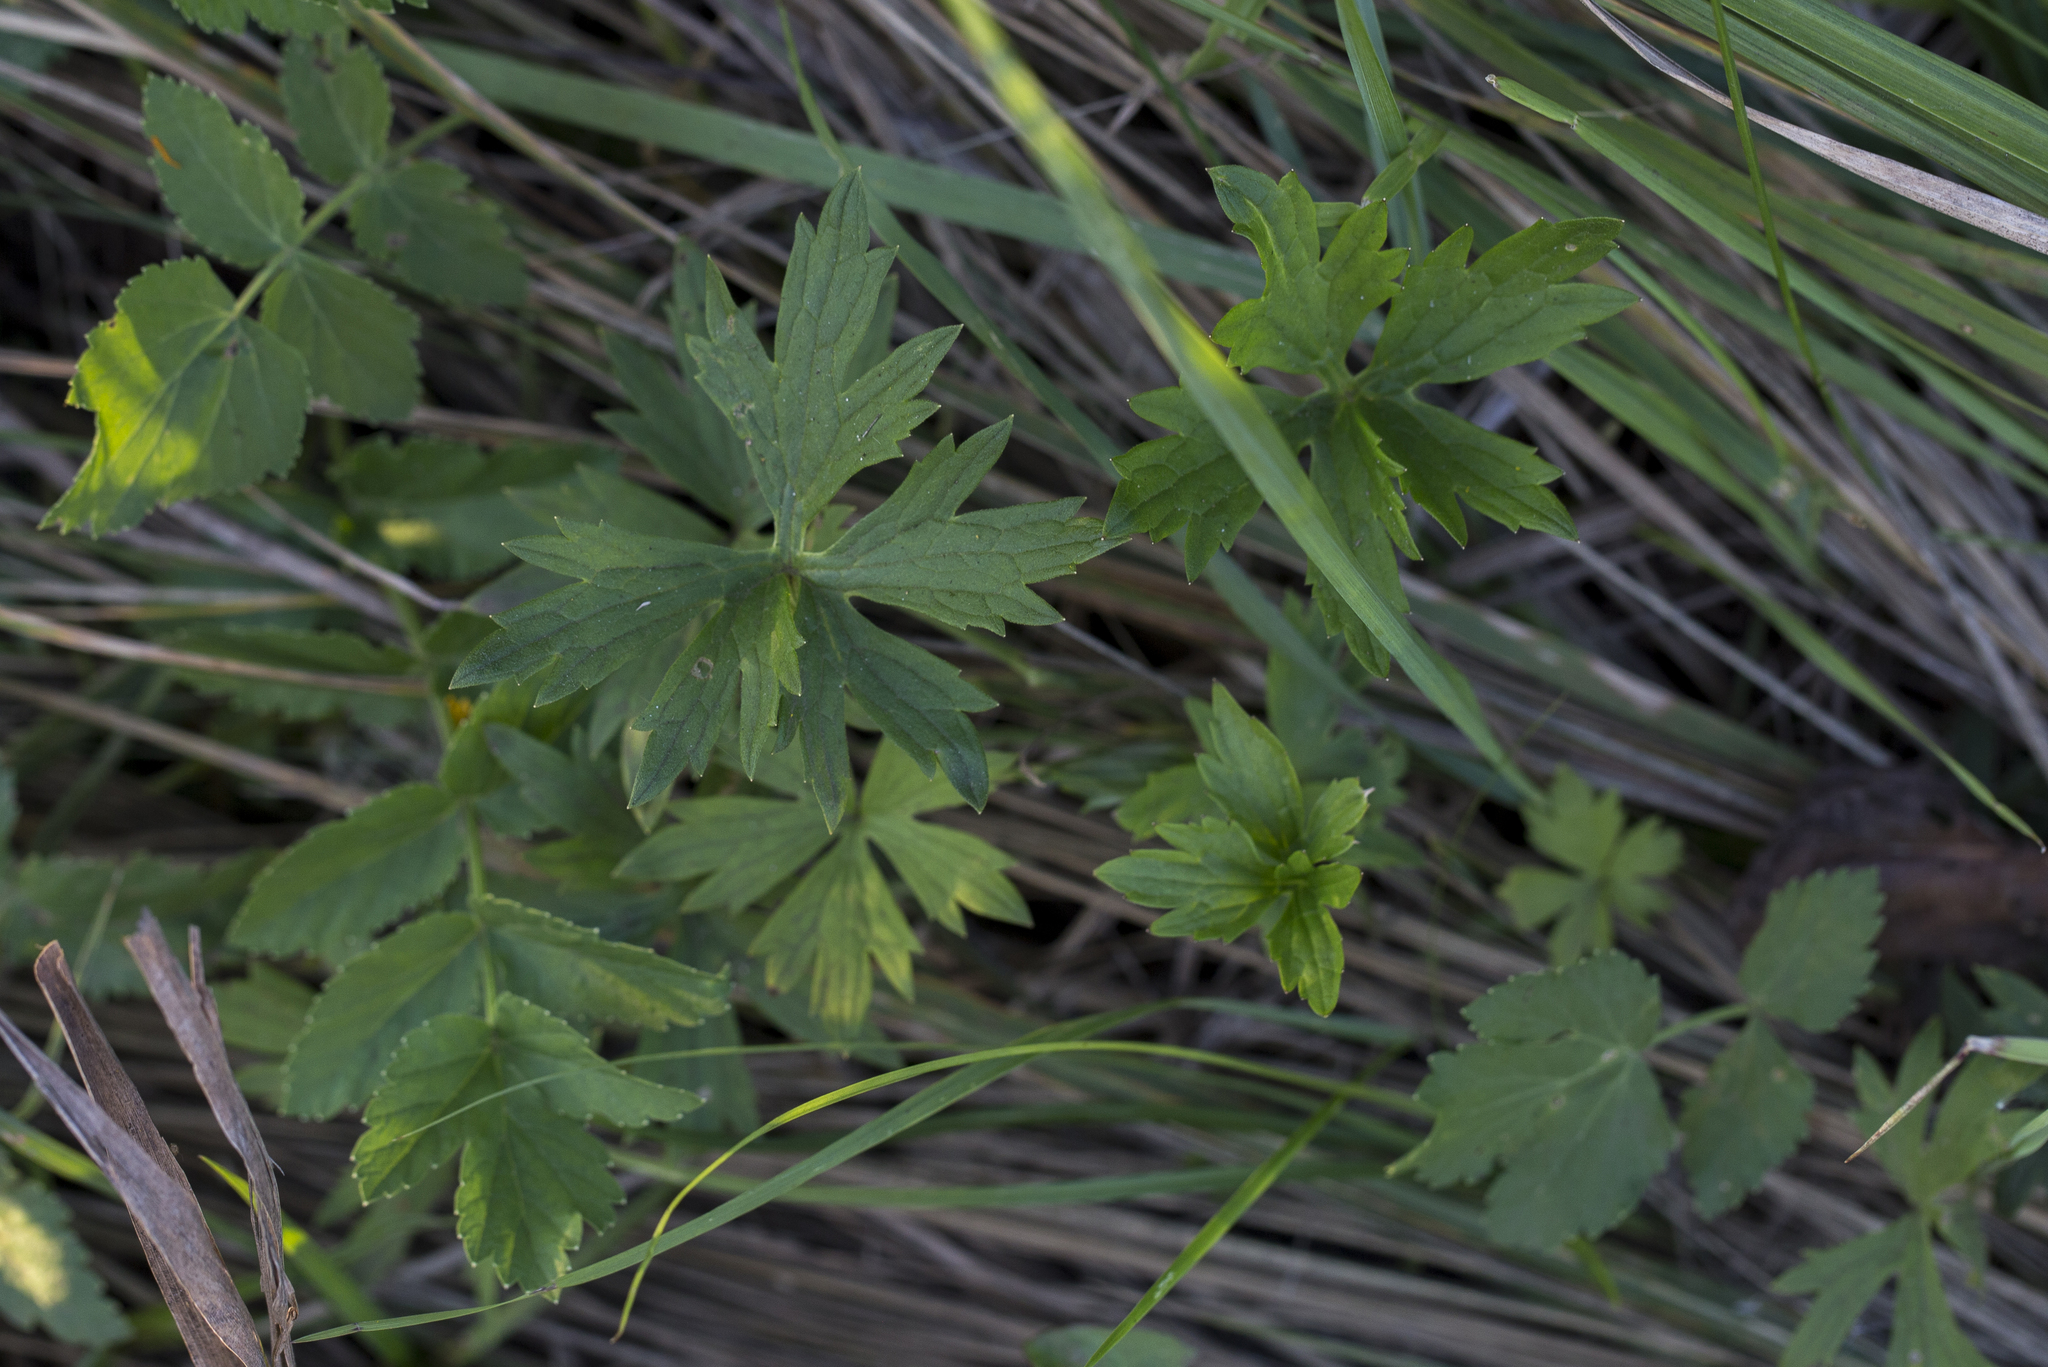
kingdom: Plantae
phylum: Tracheophyta
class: Magnoliopsida
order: Ranunculales
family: Ranunculaceae
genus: Ranunculus
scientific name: Ranunculus repens
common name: Creeping buttercup
